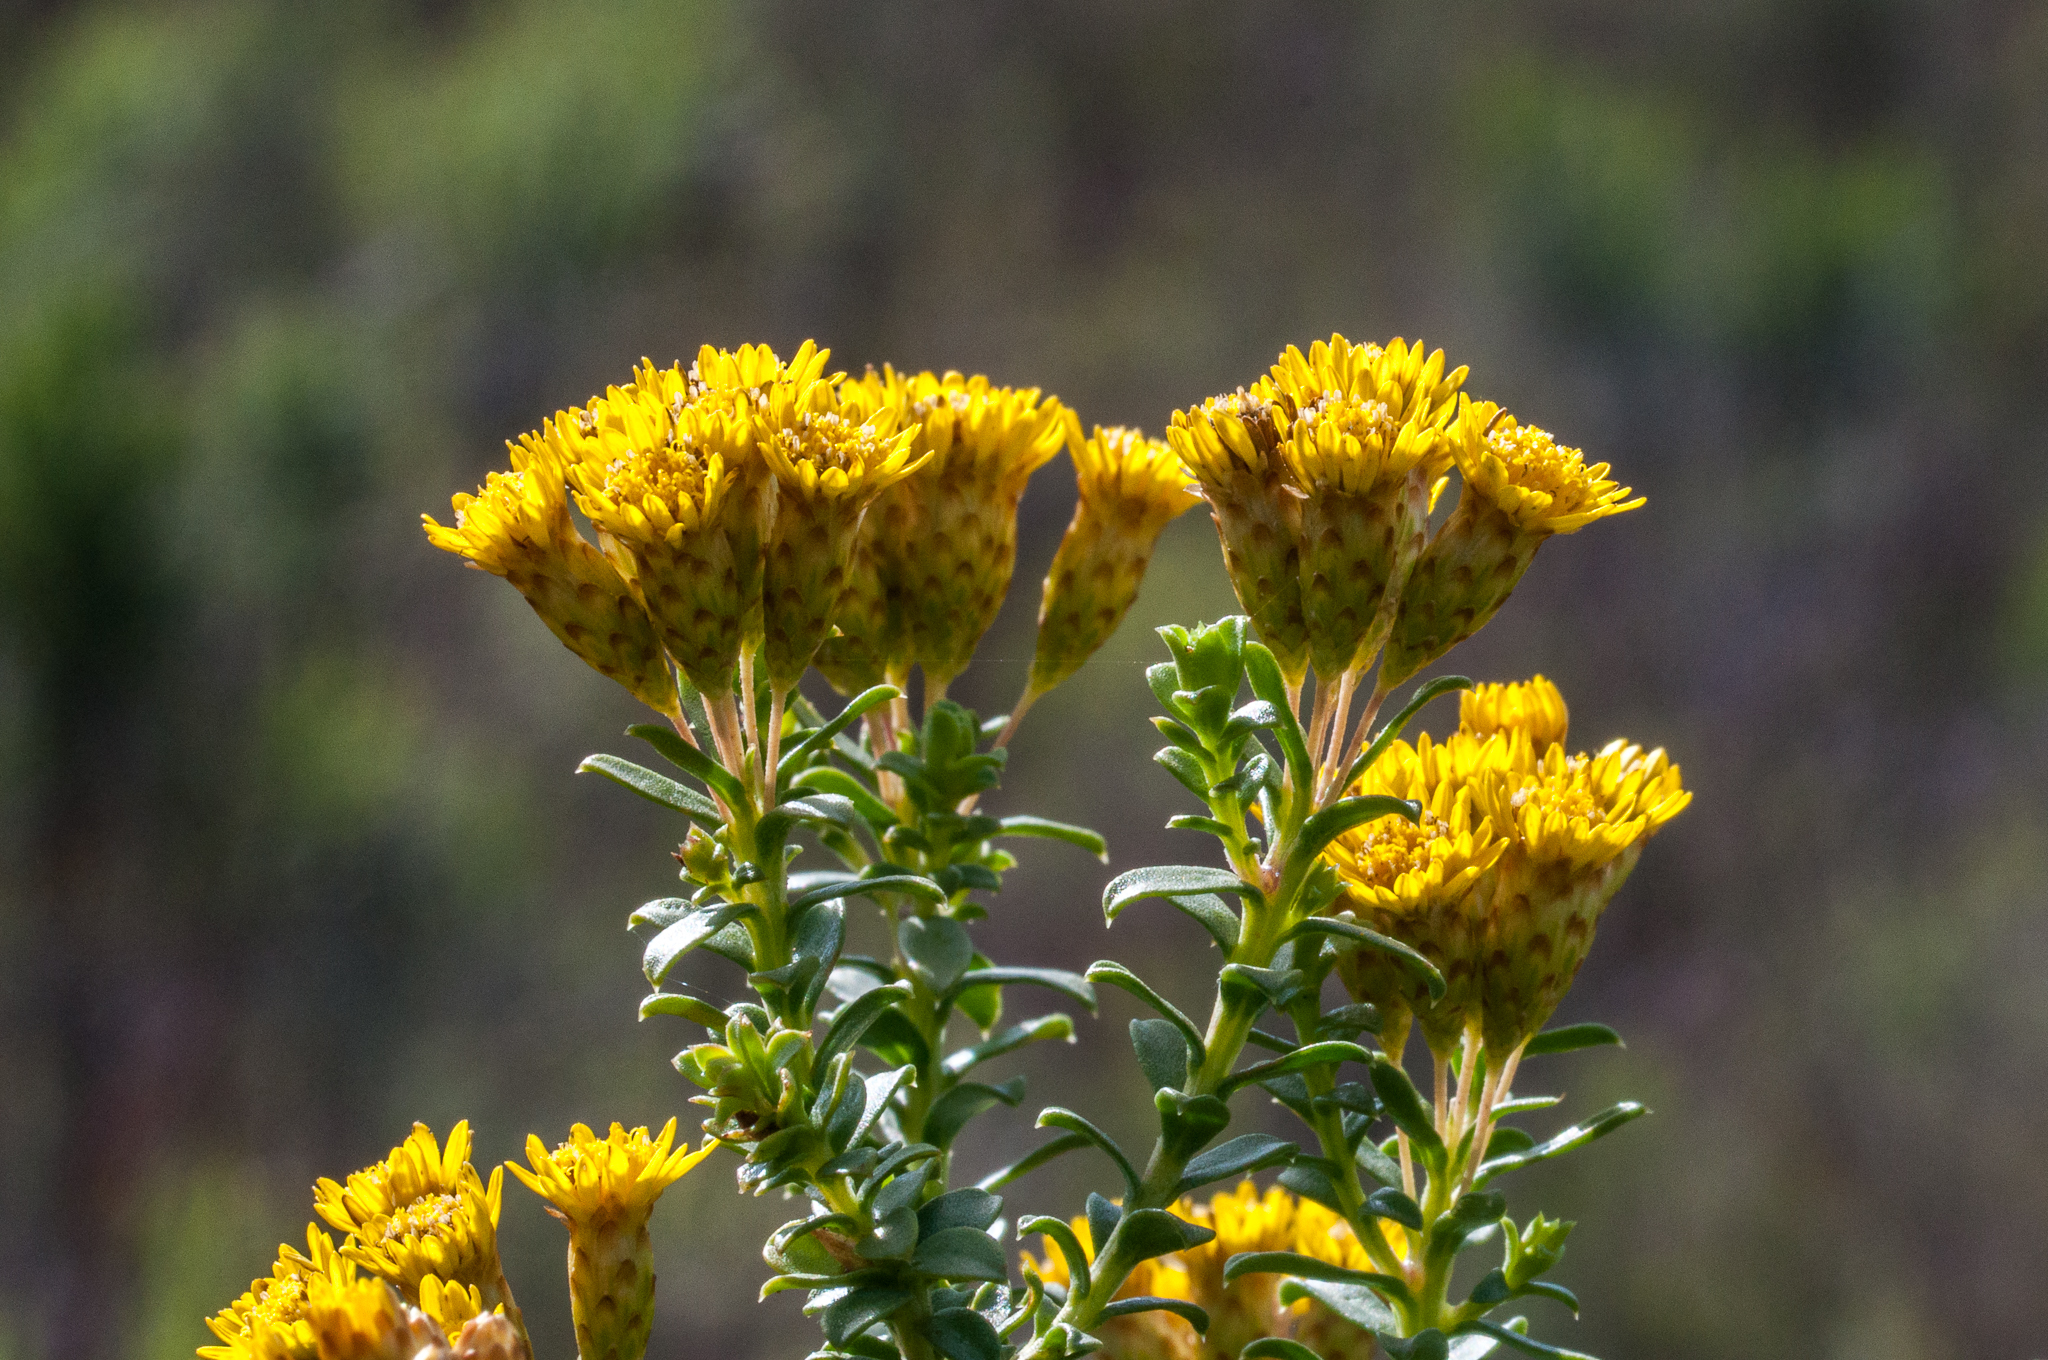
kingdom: Plantae
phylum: Tracheophyta
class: Magnoliopsida
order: Asterales
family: Asteraceae
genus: Oedera
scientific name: Oedera squarrosa
